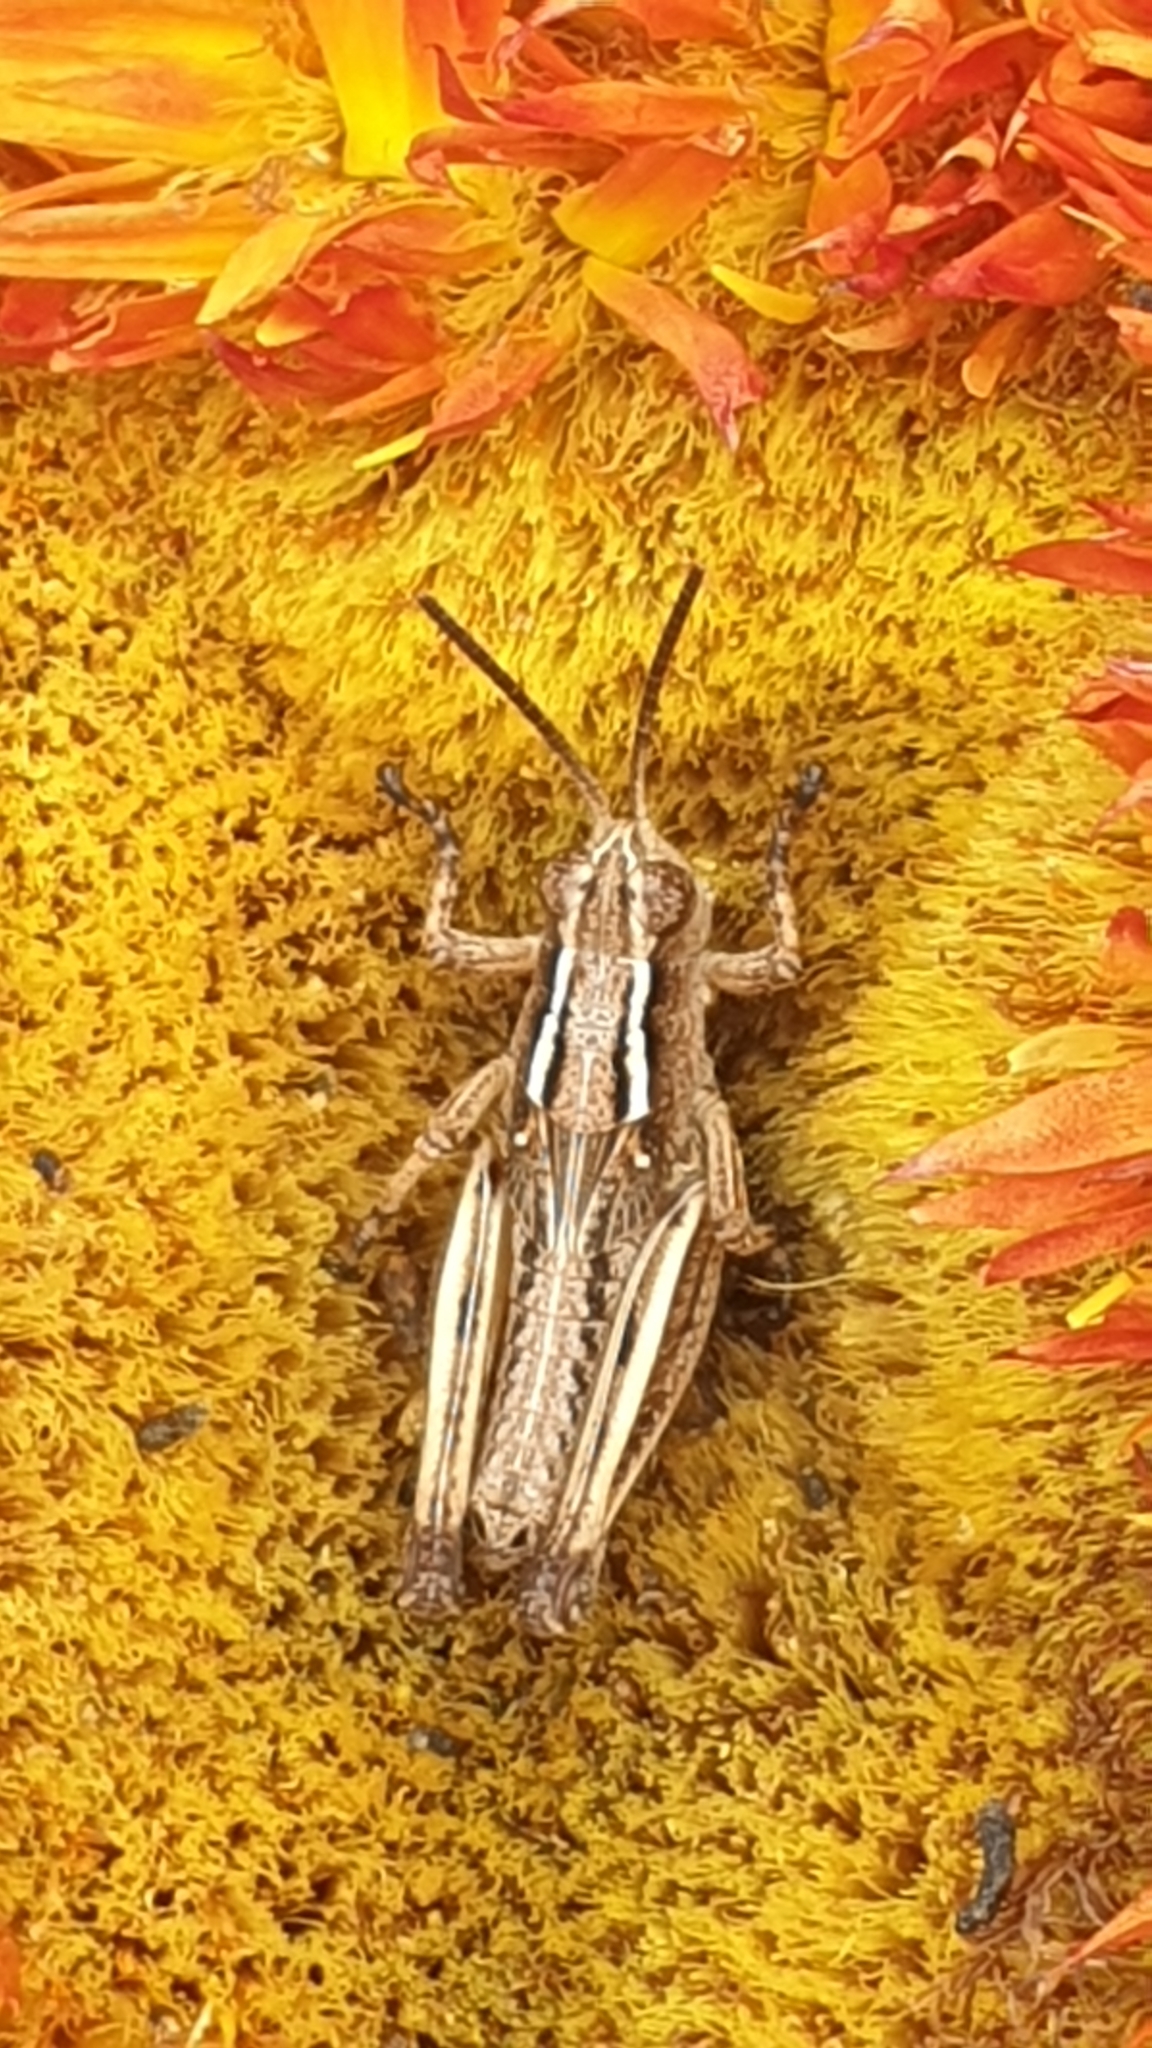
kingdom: Animalia
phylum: Arthropoda
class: Insecta
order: Orthoptera
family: Acrididae
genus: Phaulacridium
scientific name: Phaulacridium vittatum
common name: Wingless grasshopper
